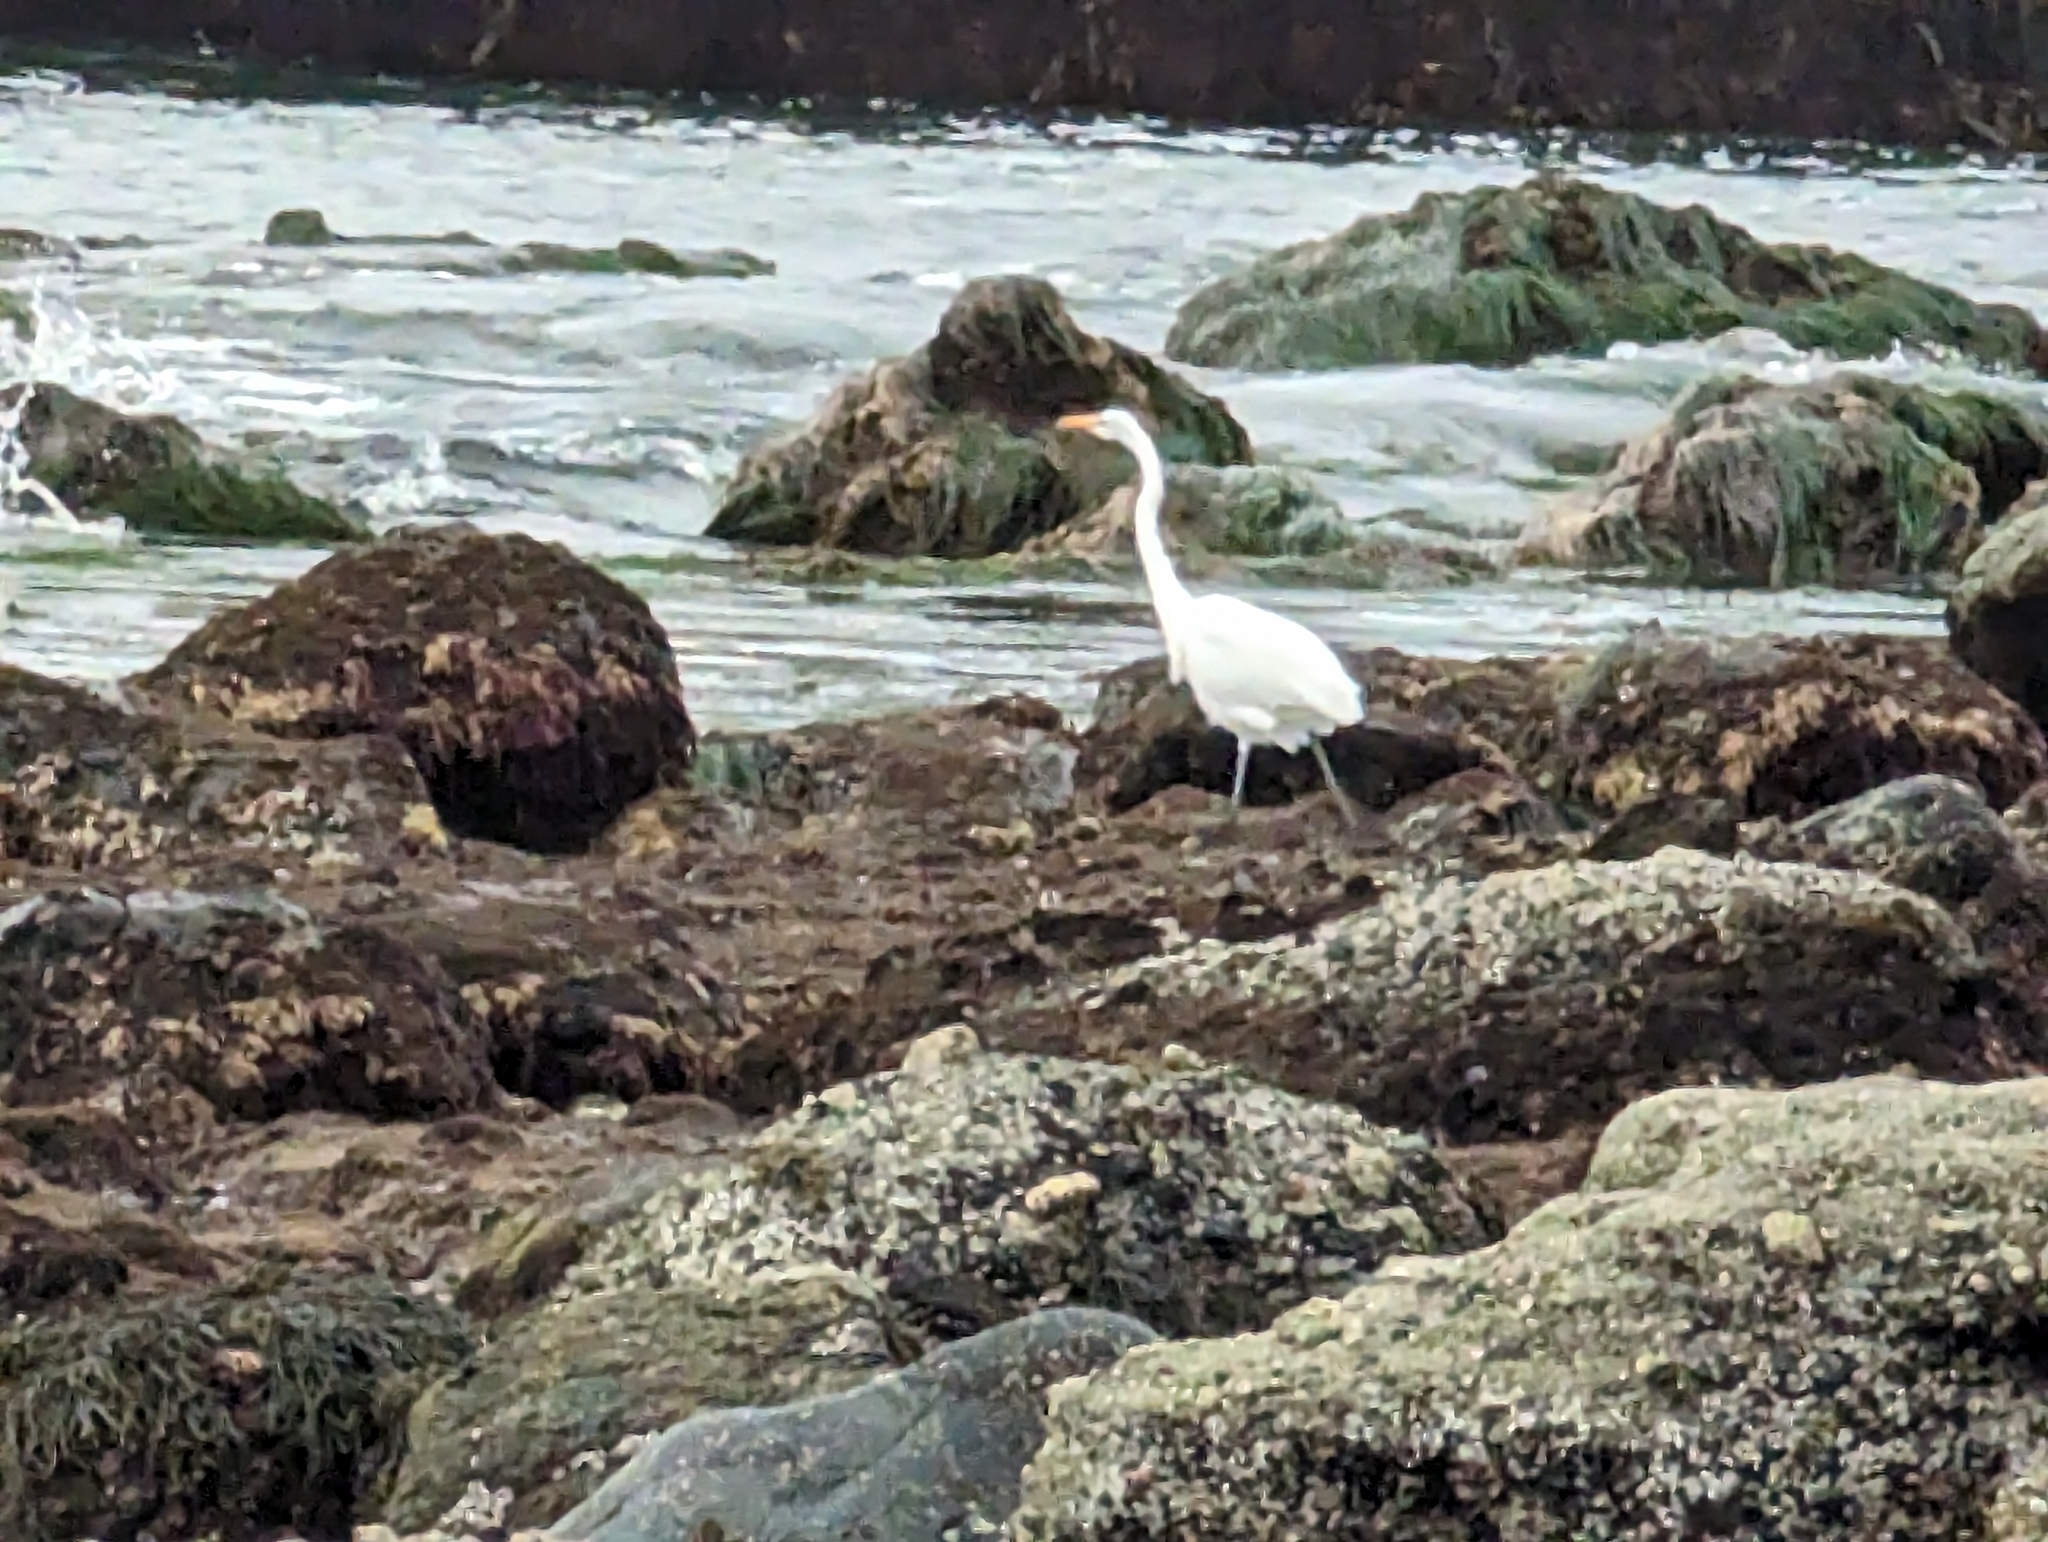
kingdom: Animalia
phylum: Chordata
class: Aves
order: Pelecaniformes
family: Ardeidae
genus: Ardea
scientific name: Ardea alba
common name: Great egret
